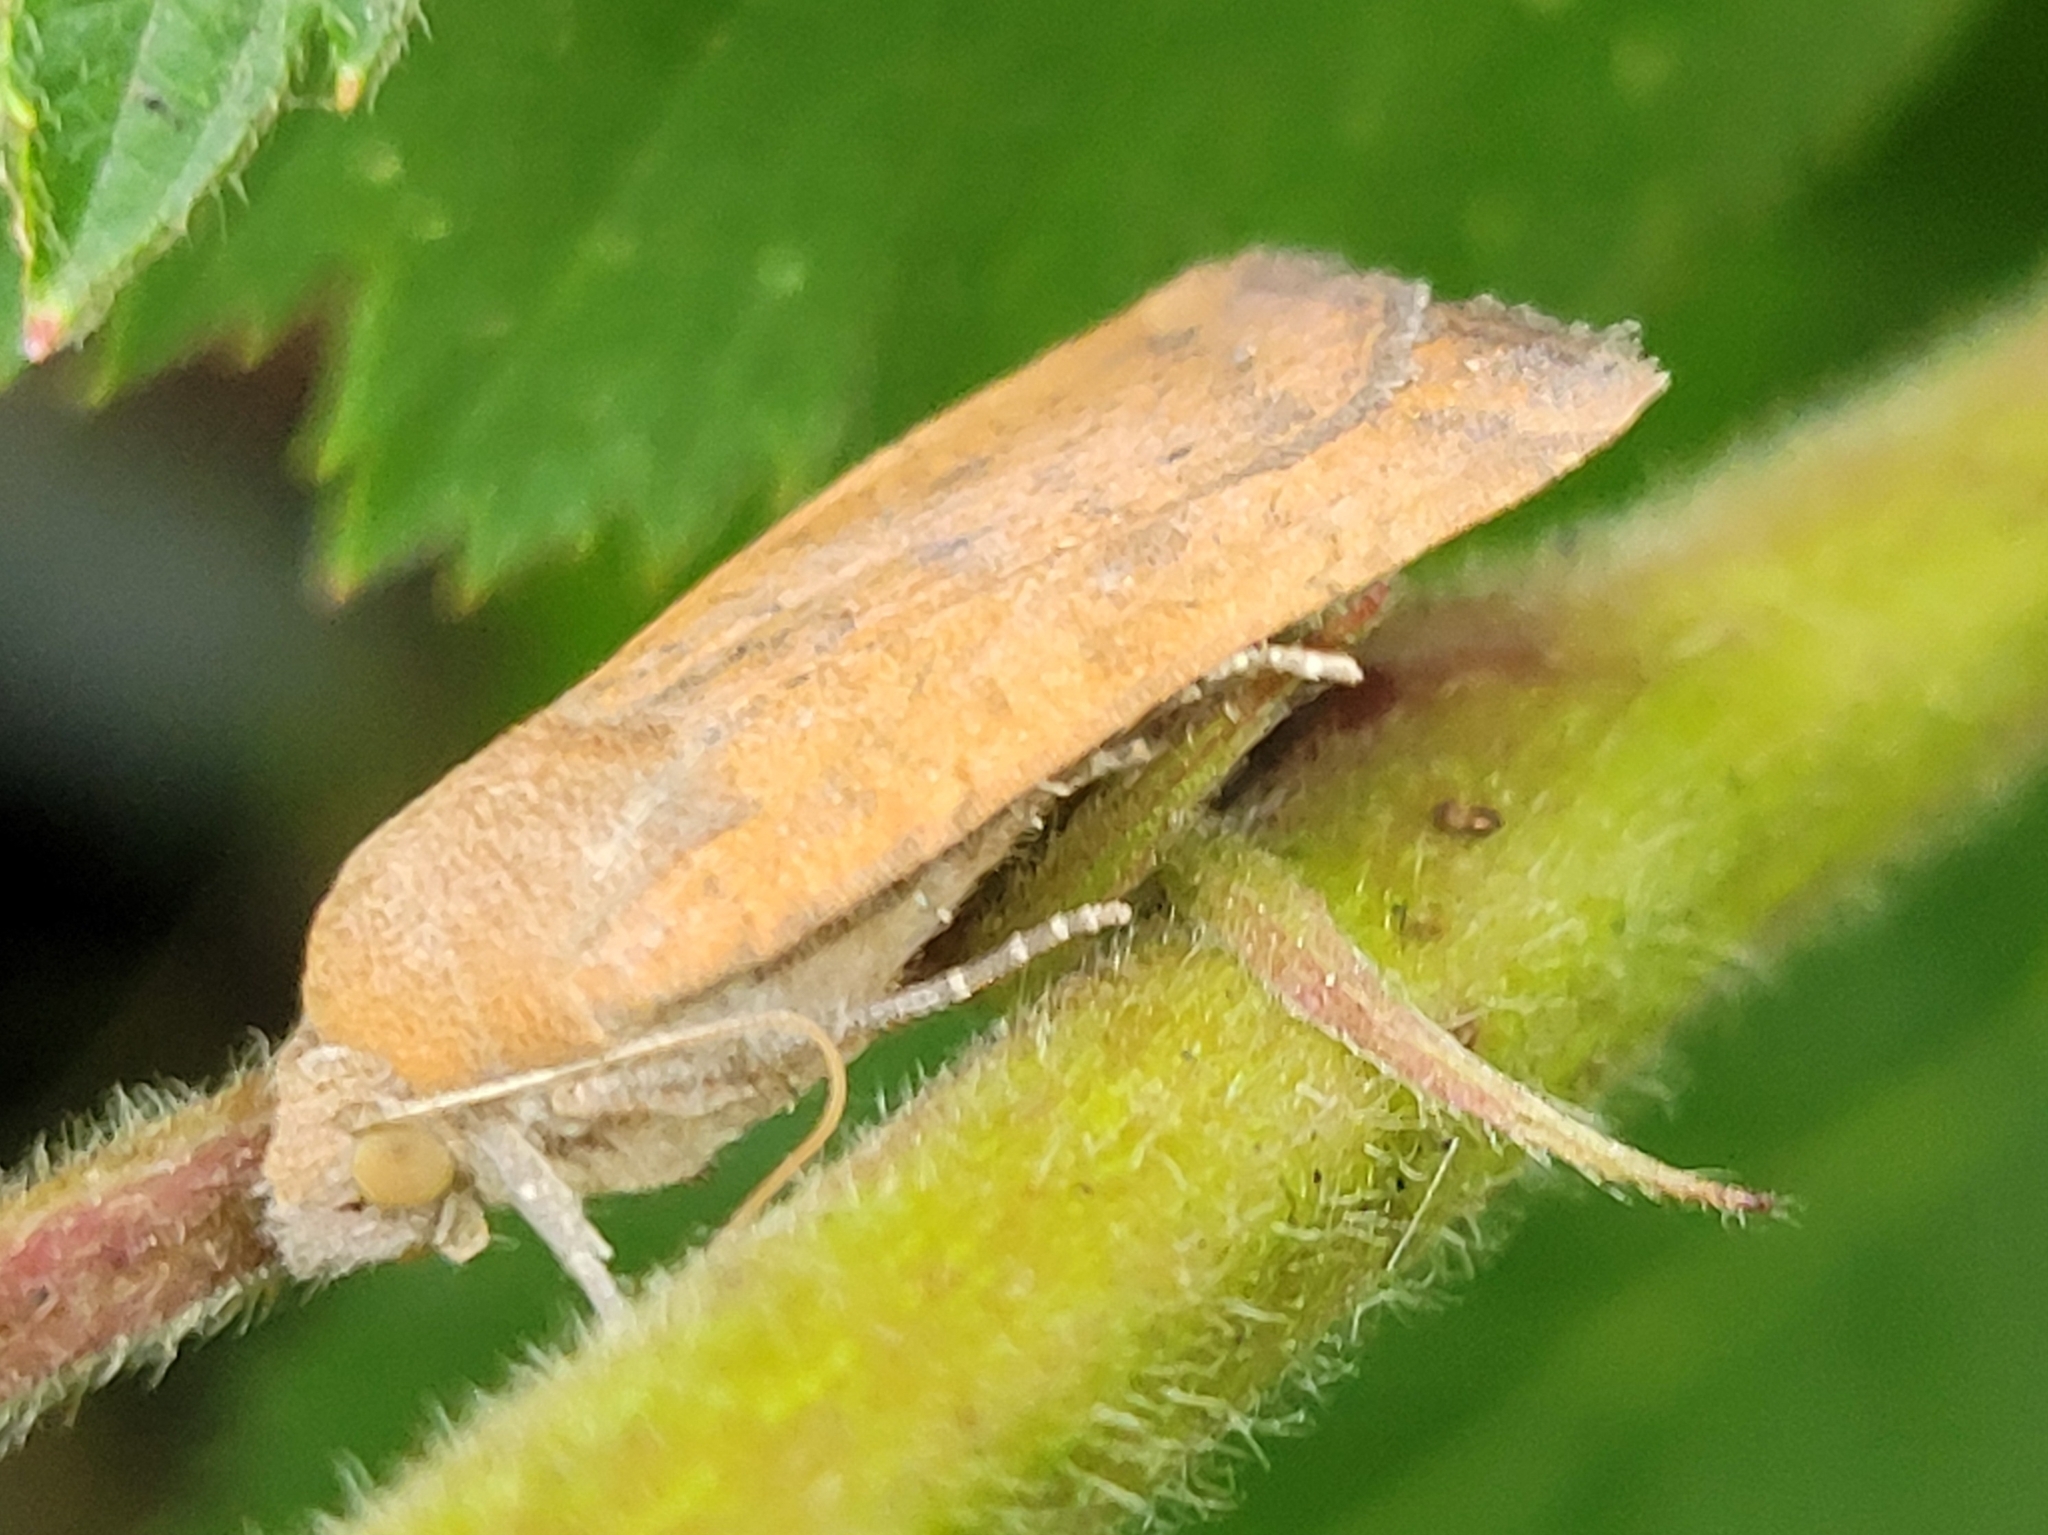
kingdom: Animalia
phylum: Arthropoda
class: Insecta
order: Lepidoptera
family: Noctuidae
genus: Noctua
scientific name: Noctua interjecta
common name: Least yellow underwing
